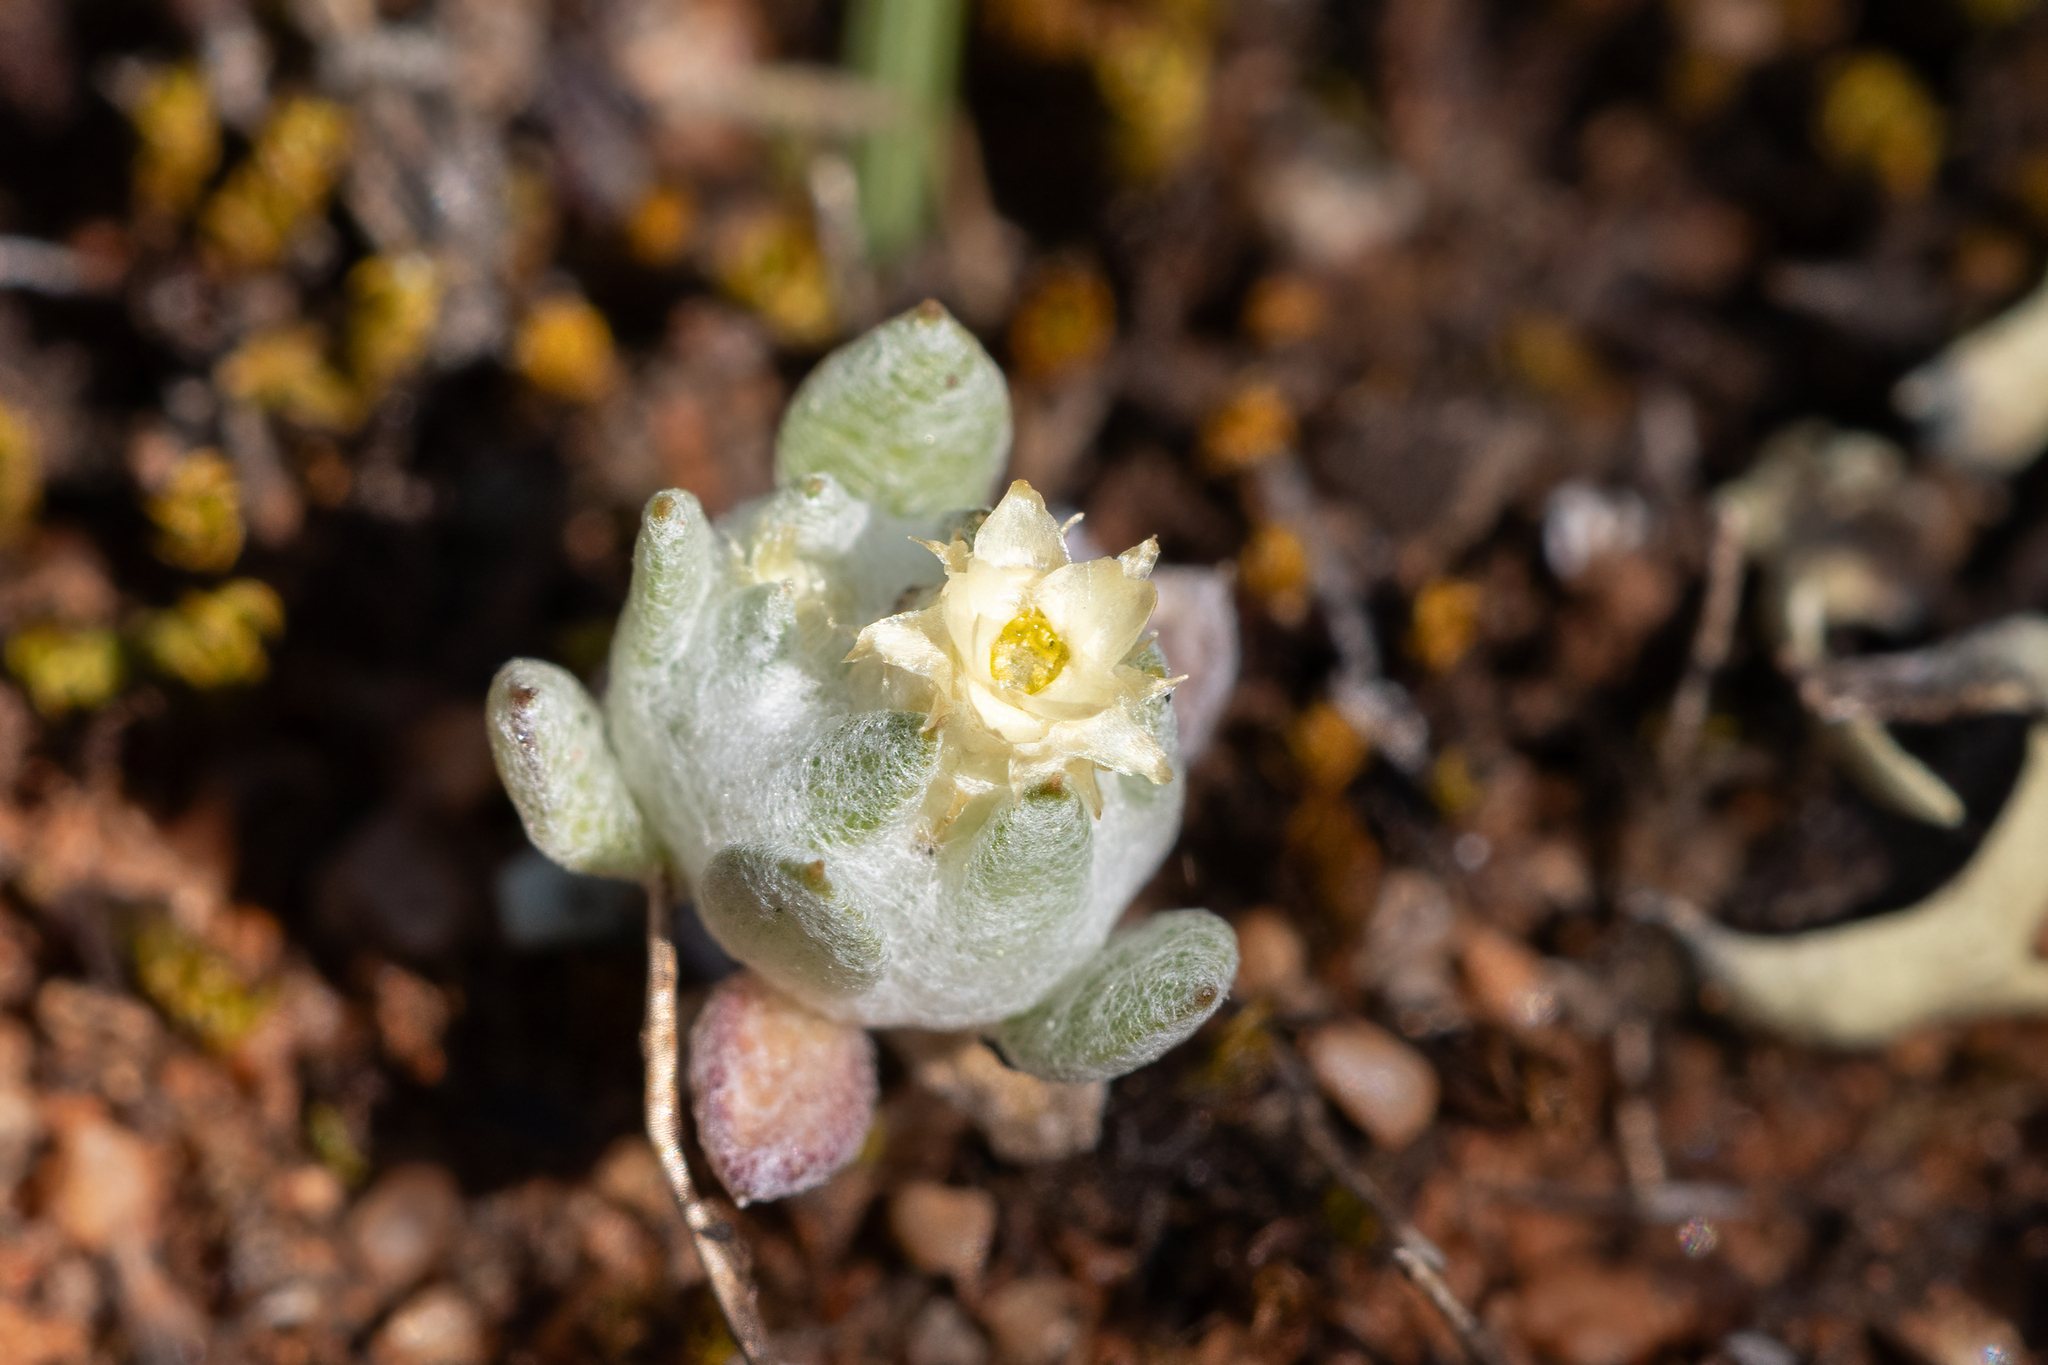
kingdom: Plantae
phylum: Tracheophyta
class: Magnoliopsida
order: Asterales
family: Asteraceae
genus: Actinobole
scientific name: Actinobole uliginosum
